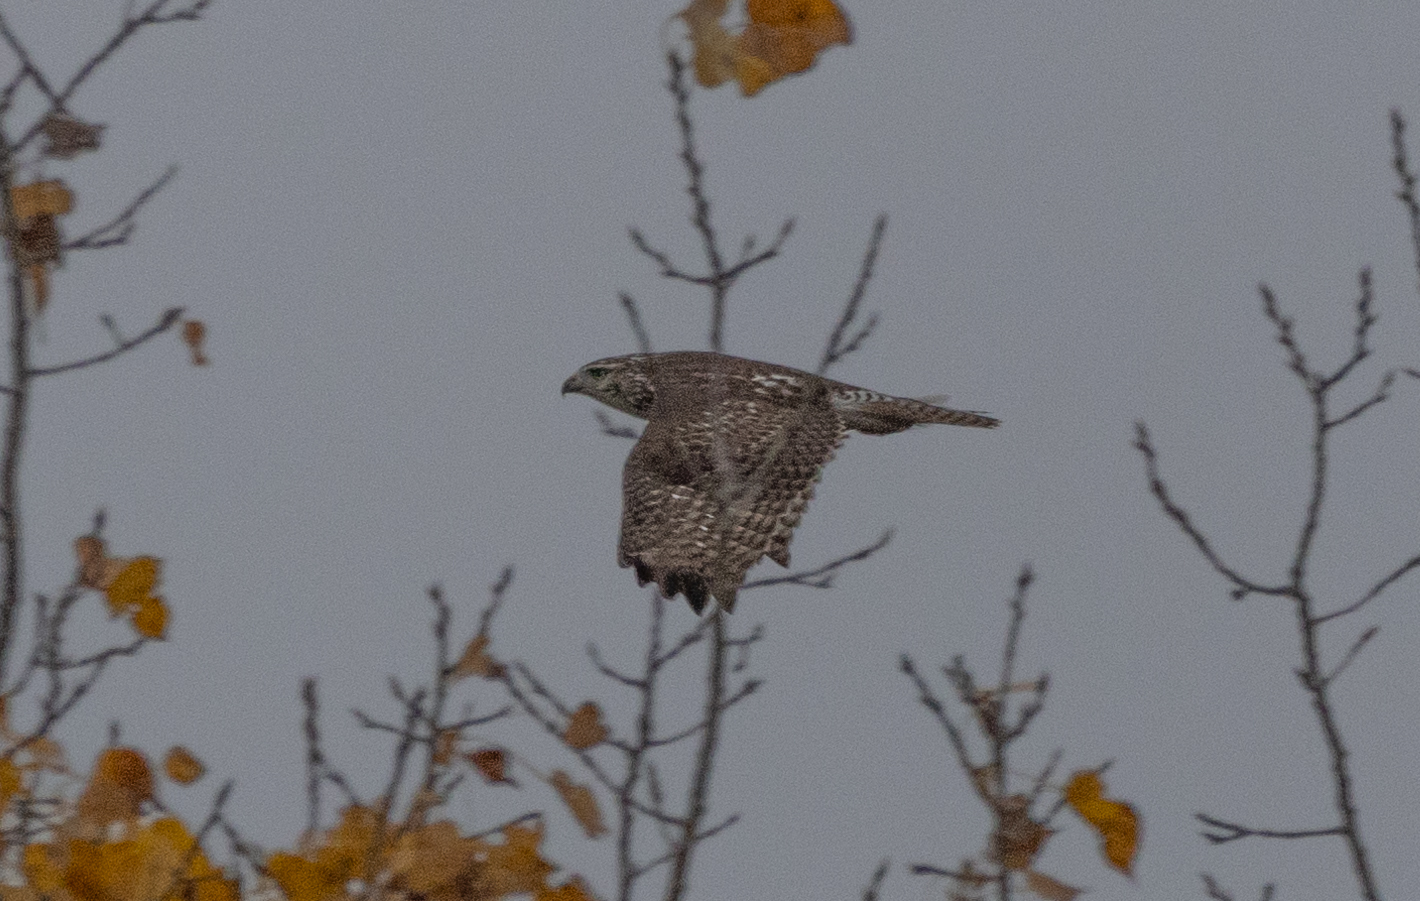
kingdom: Animalia
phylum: Chordata
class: Aves
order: Accipitriformes
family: Accipitridae
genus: Buteo
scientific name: Buteo jamaicensis
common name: Red-tailed hawk
